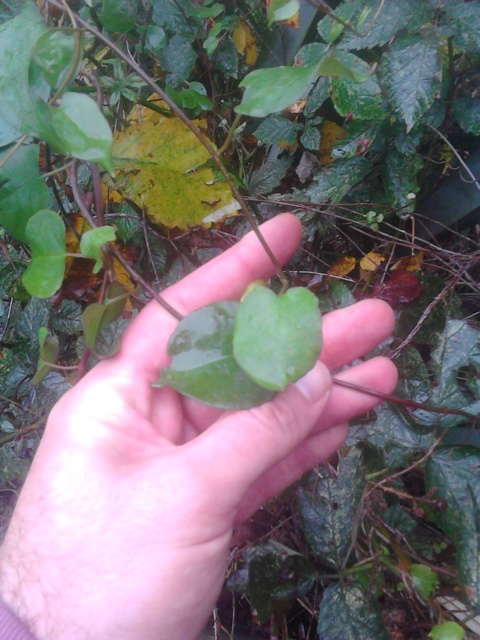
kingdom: Plantae
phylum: Tracheophyta
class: Magnoliopsida
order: Caryophyllales
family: Polygonaceae
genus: Muehlenbeckia
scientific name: Muehlenbeckia australis
